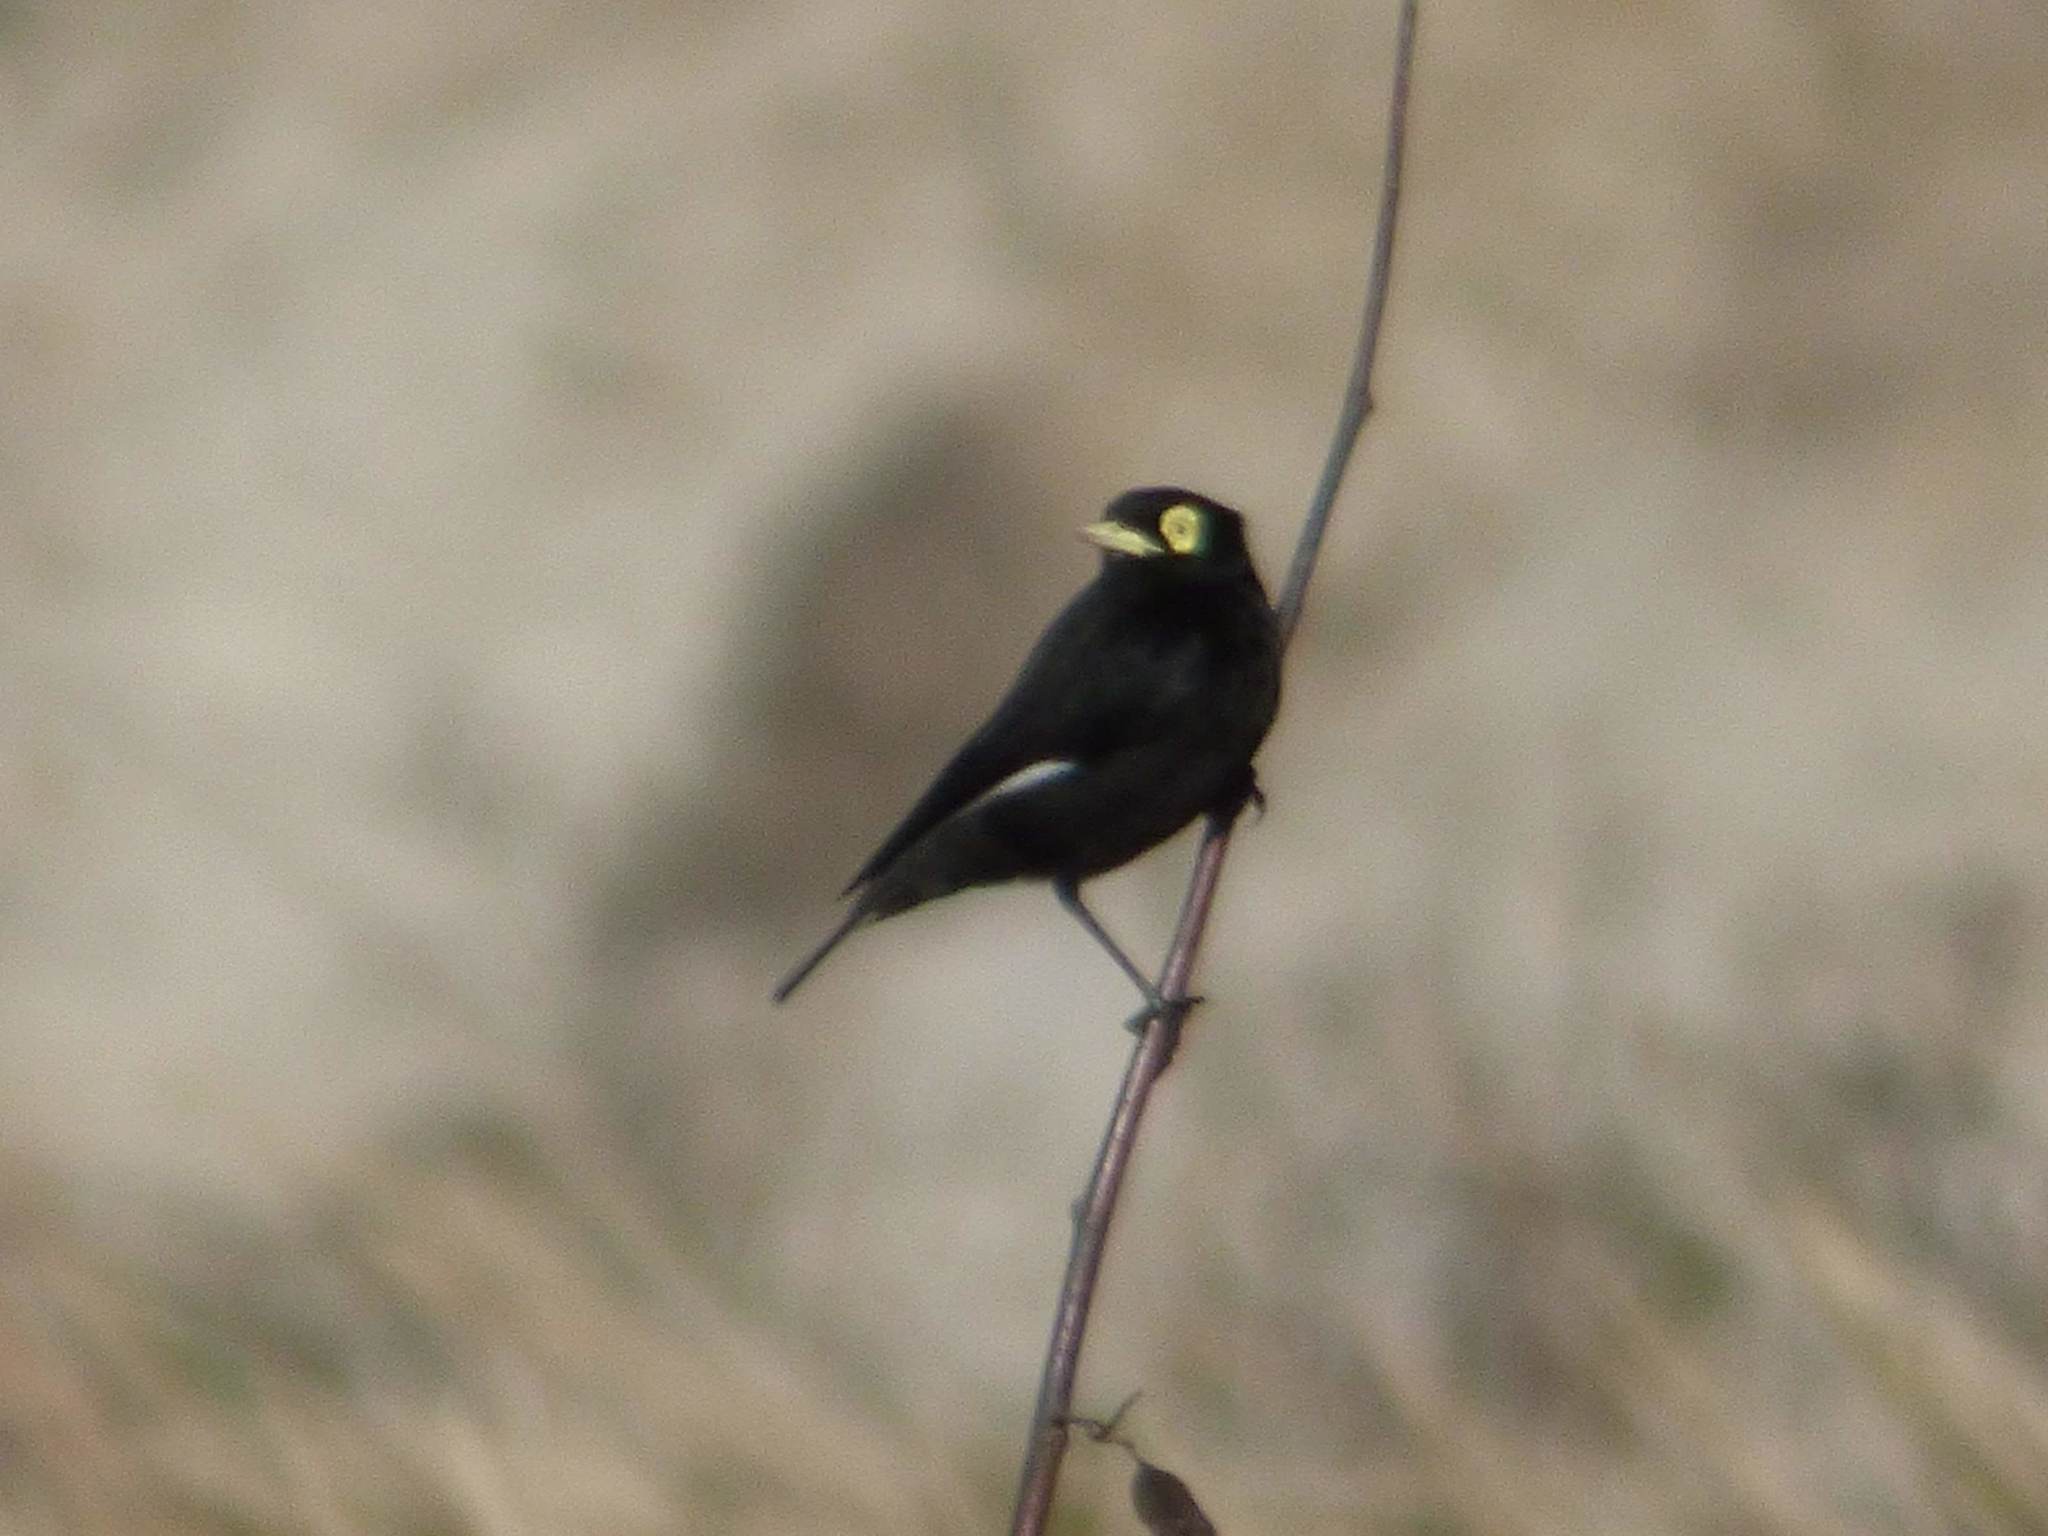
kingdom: Animalia
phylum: Chordata
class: Aves
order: Passeriformes
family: Tyrannidae
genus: Hymenops
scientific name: Hymenops perspicillatus
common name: Spectacled tyrant
